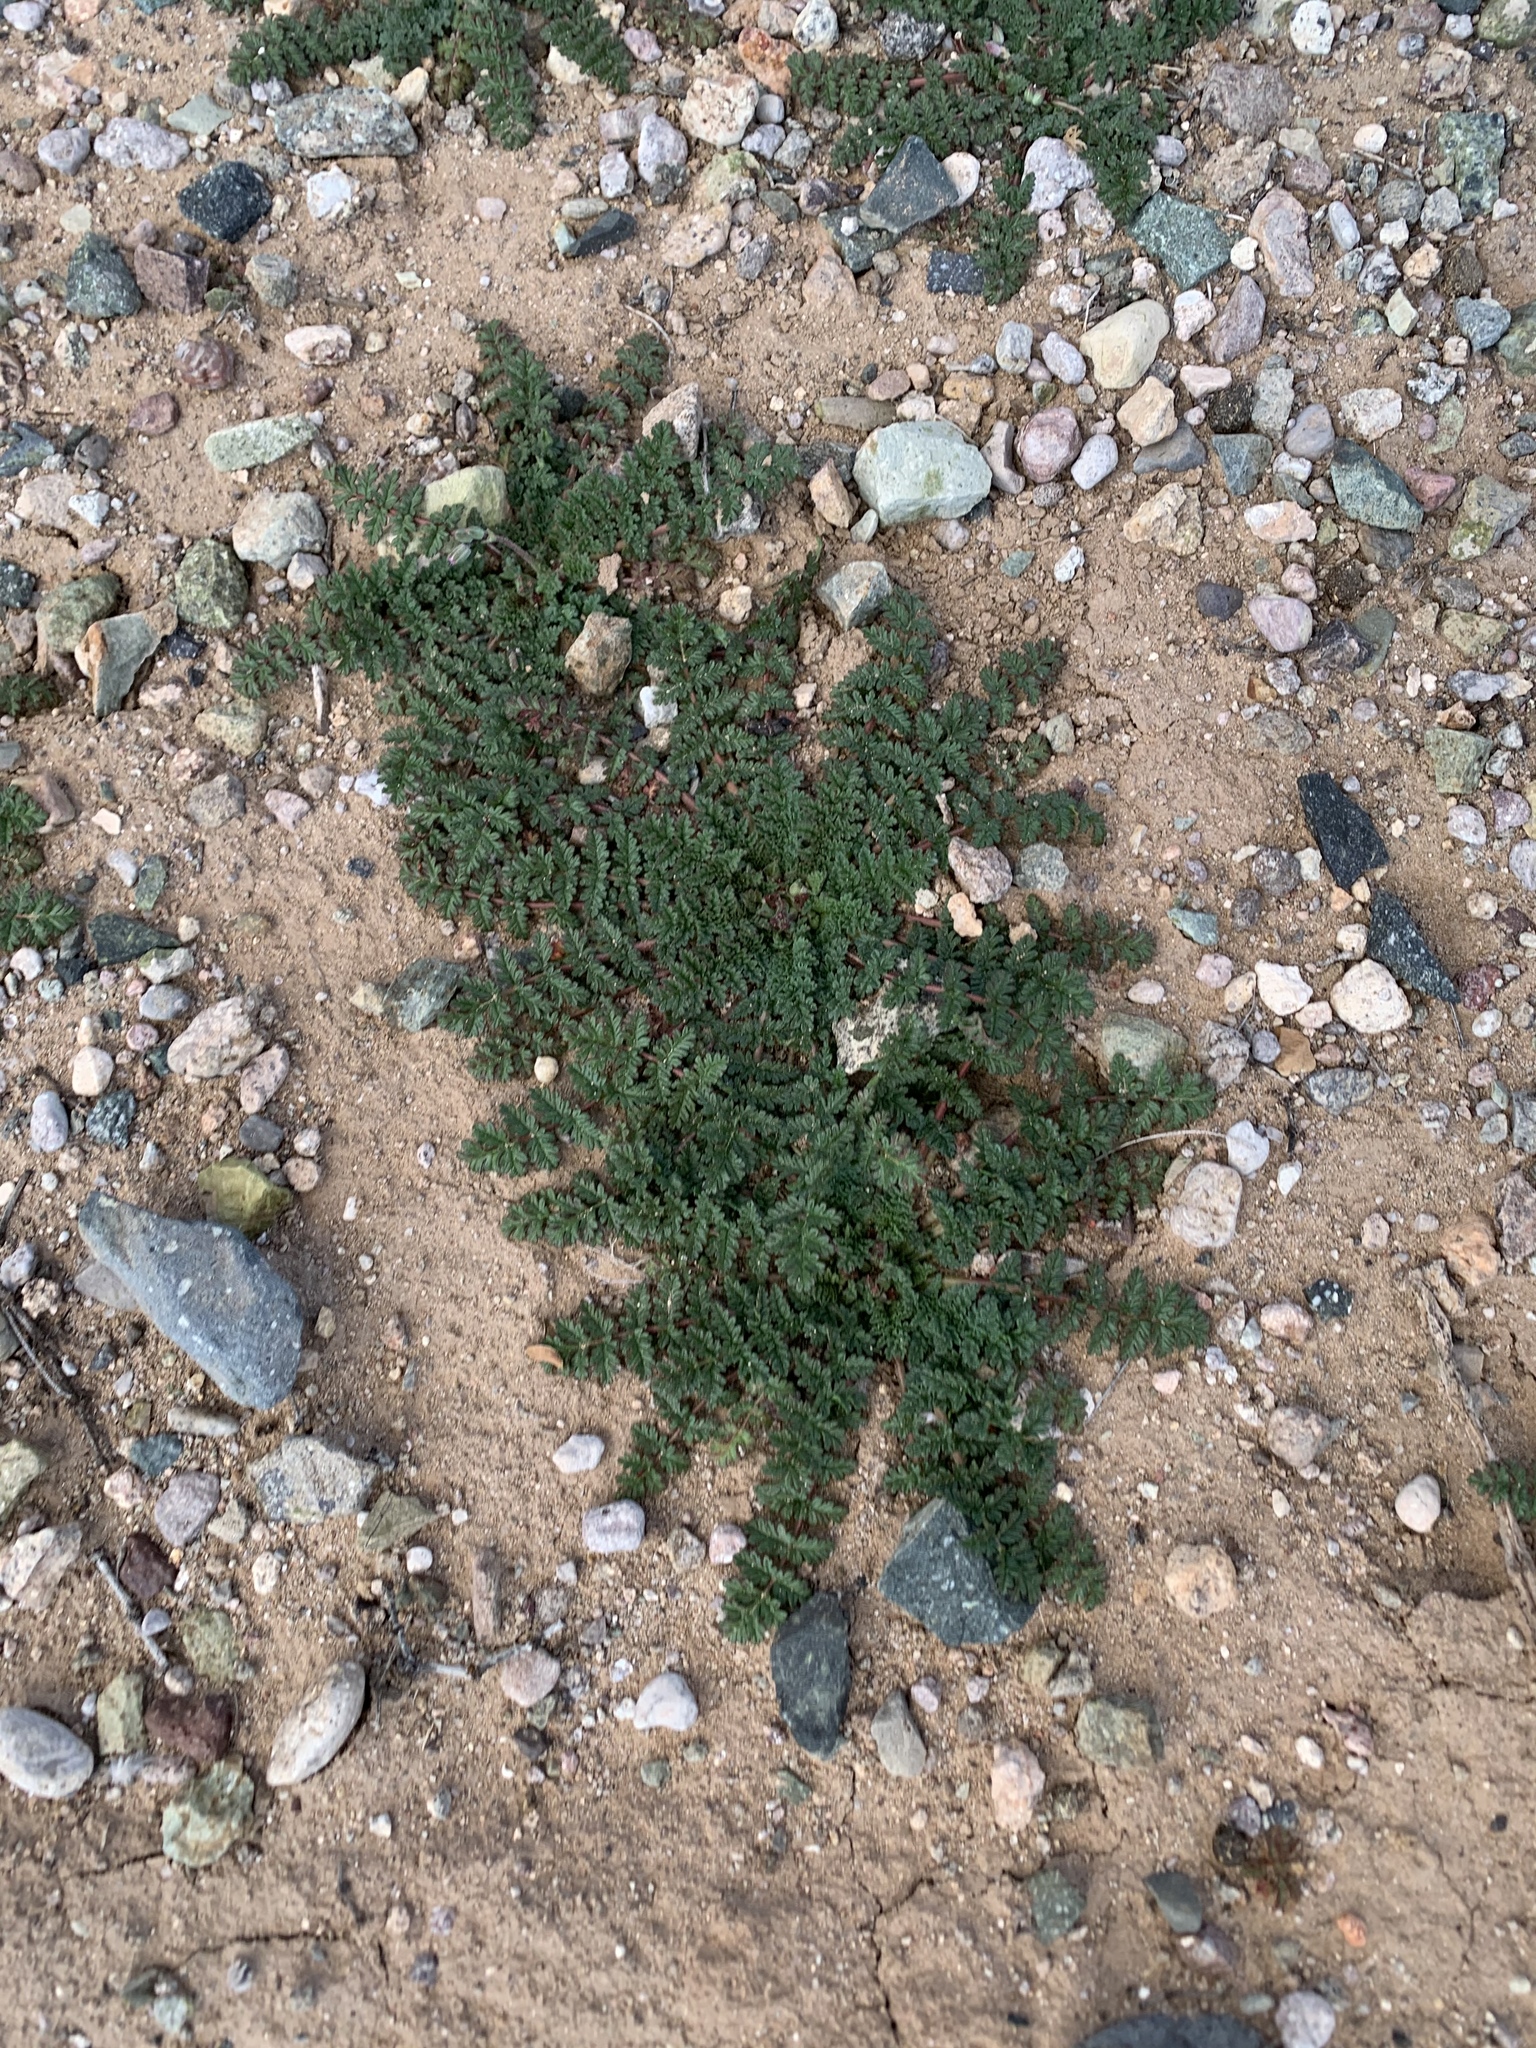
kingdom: Plantae
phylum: Tracheophyta
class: Magnoliopsida
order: Geraniales
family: Geraniaceae
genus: Erodium
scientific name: Erodium cicutarium
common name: Common stork's-bill
